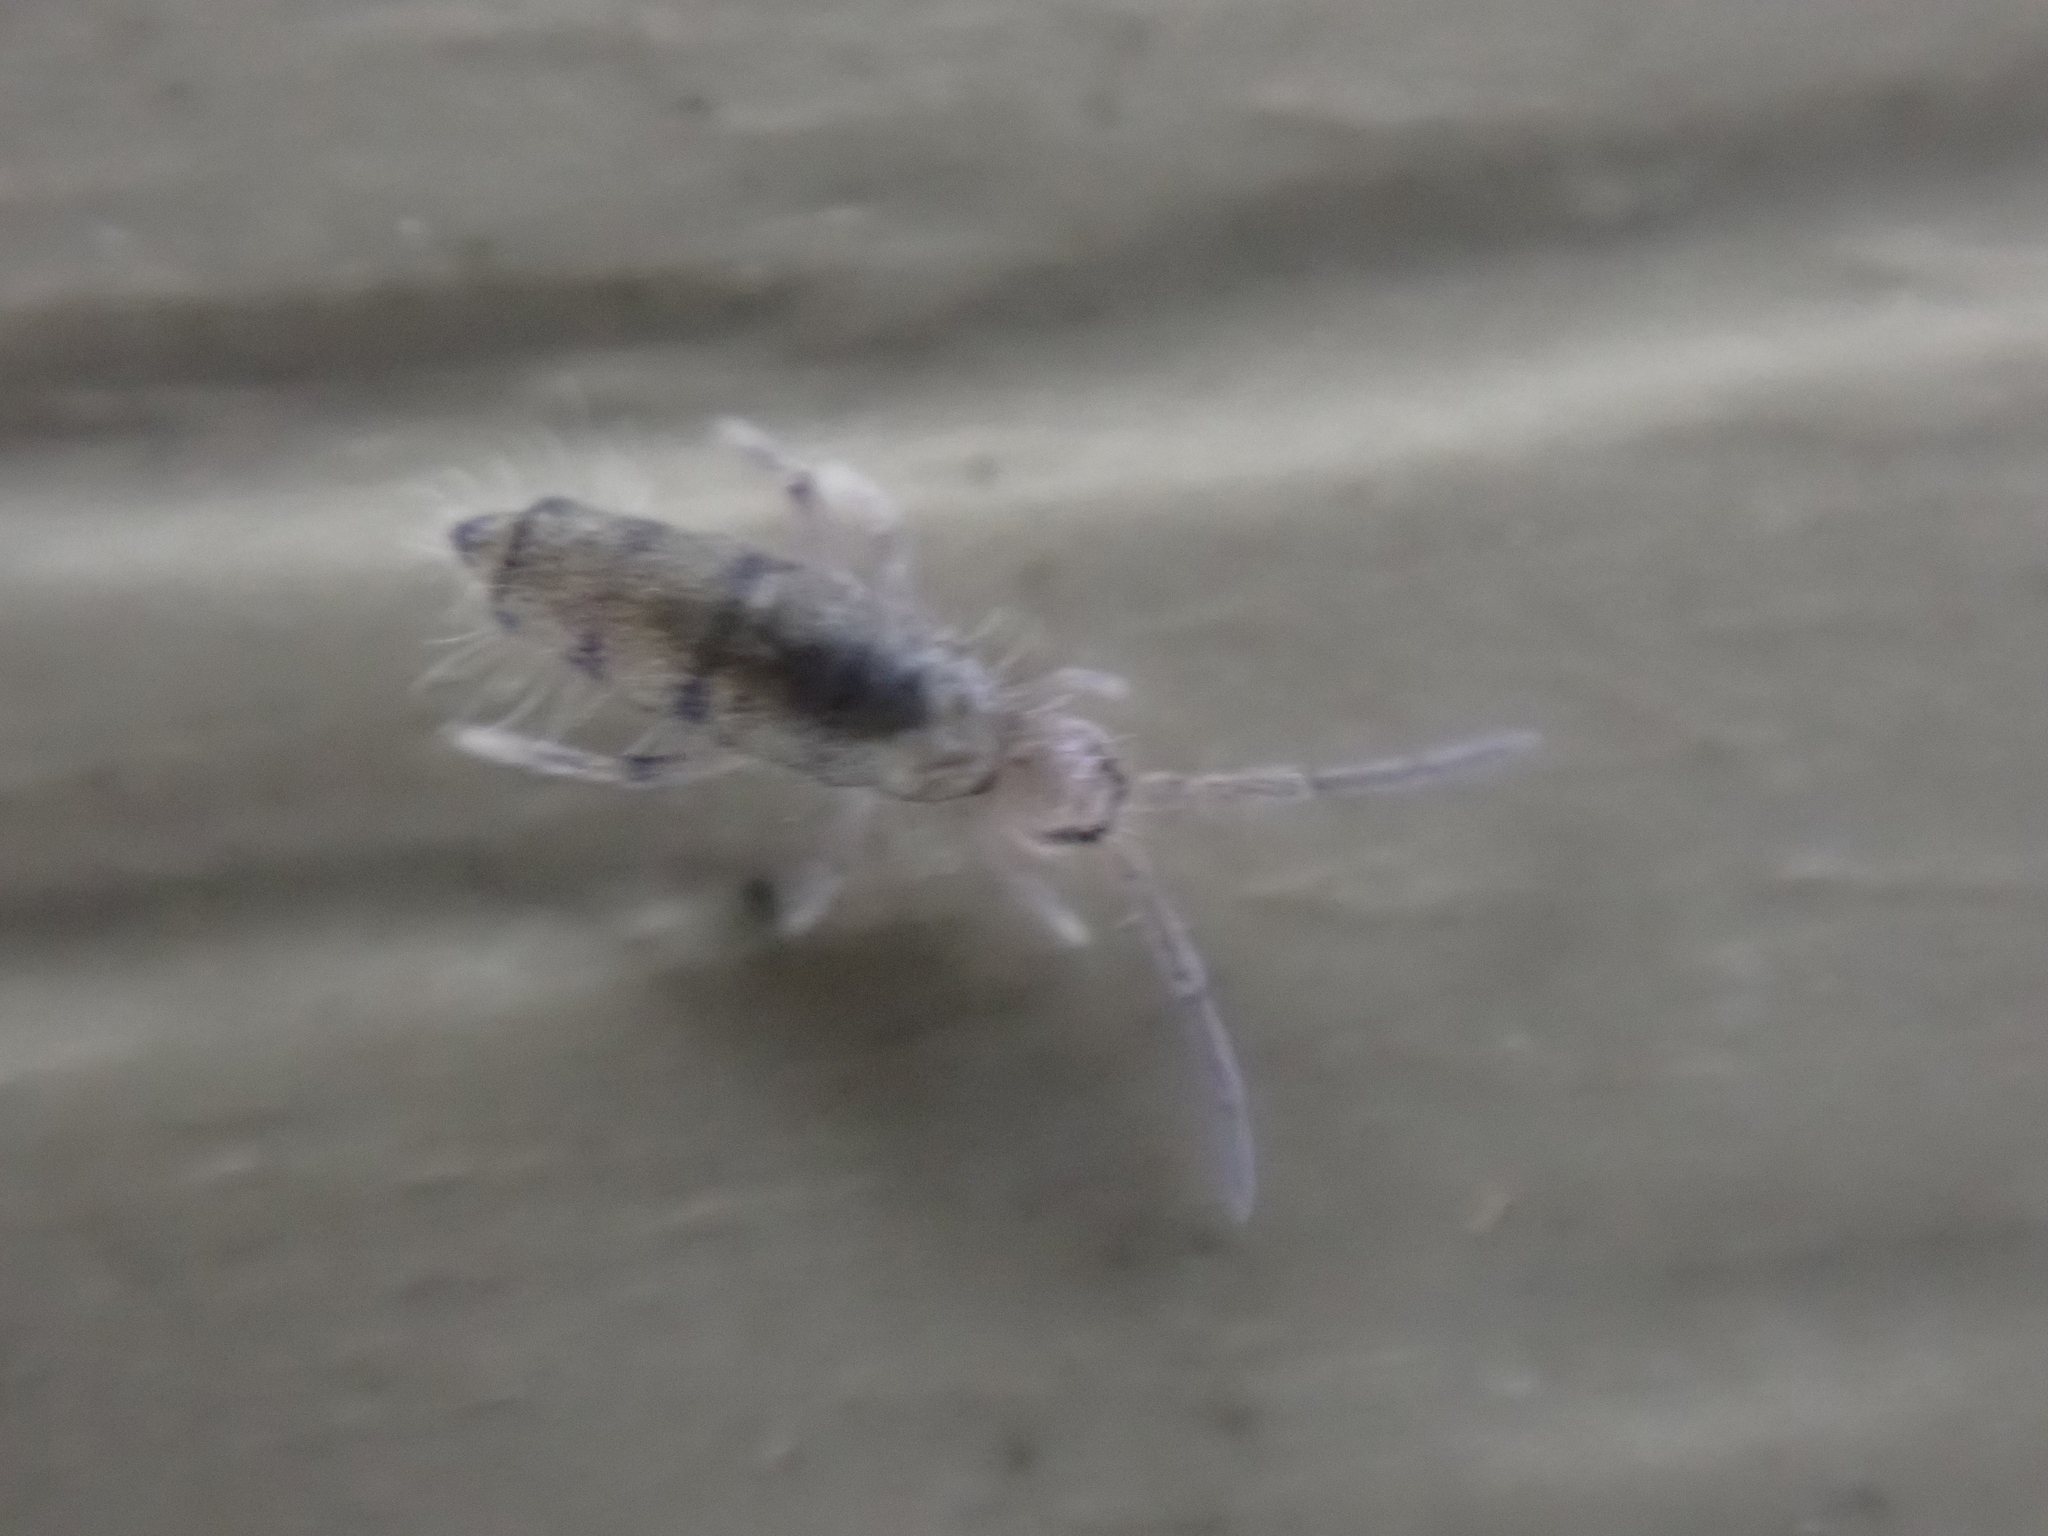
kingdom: Animalia
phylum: Arthropoda
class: Collembola
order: Entomobryomorpha
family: Entomobryidae
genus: Willowsia
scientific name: Willowsia nigromaculata
